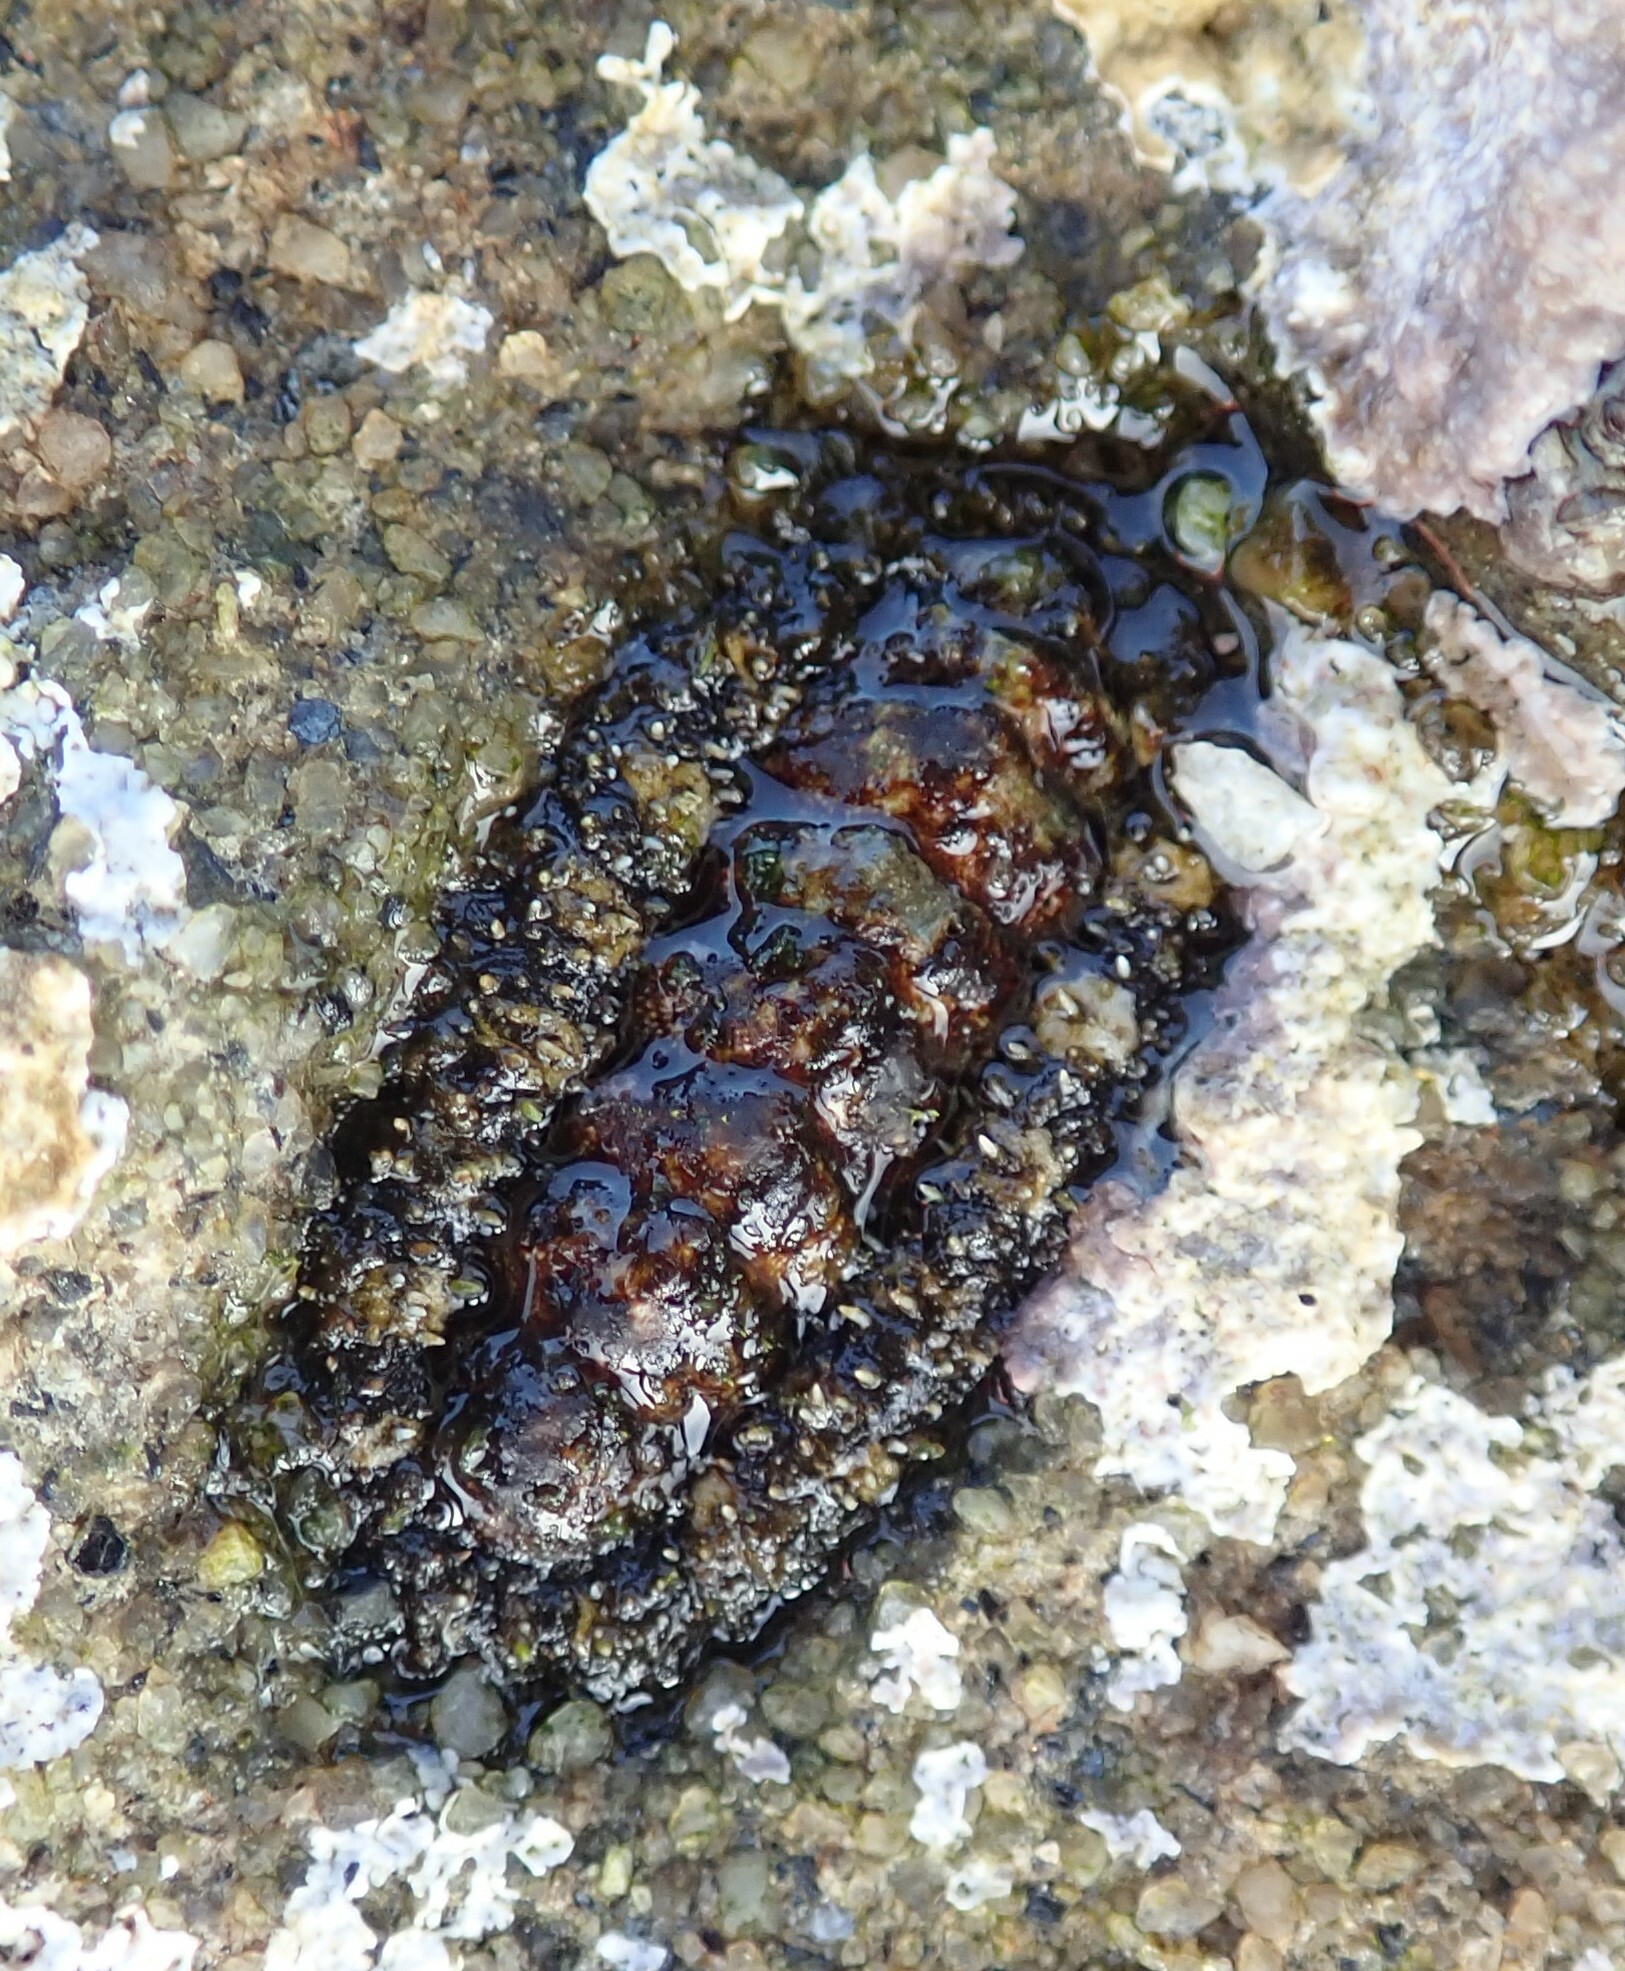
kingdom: Animalia
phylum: Mollusca
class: Polyplacophora
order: Chitonida
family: Tonicellidae
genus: Nuttallina
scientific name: Nuttallina californica
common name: California nuttall chiton
